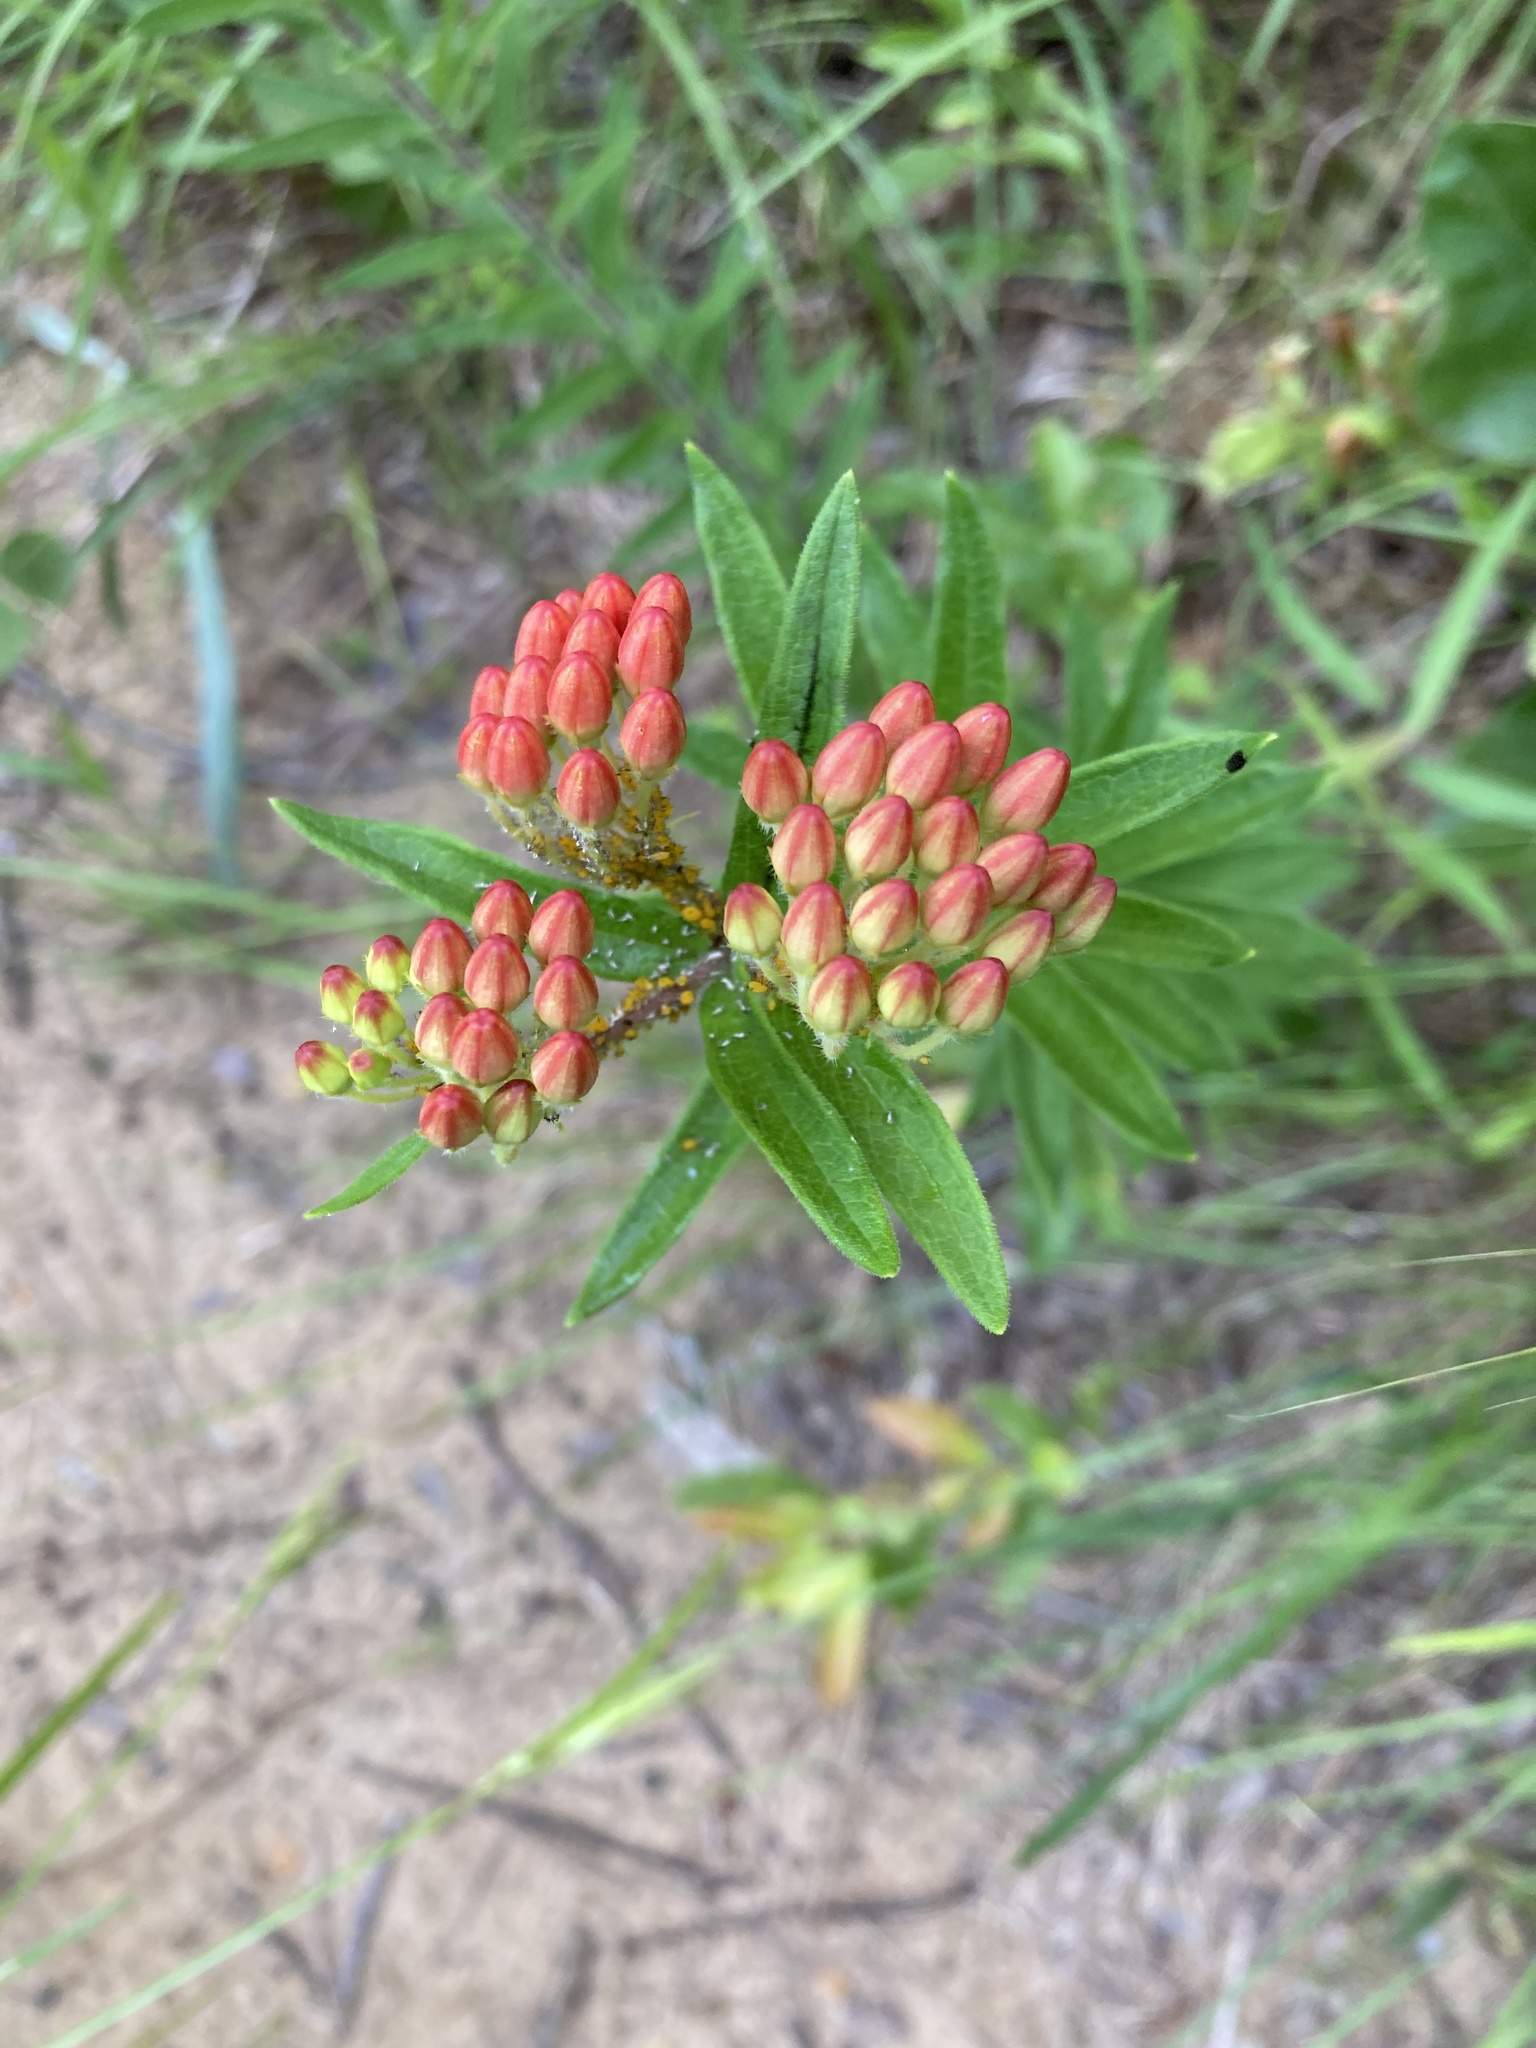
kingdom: Plantae
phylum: Tracheophyta
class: Magnoliopsida
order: Gentianales
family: Apocynaceae
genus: Asclepias
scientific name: Asclepias tuberosa
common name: Butterfly milkweed
